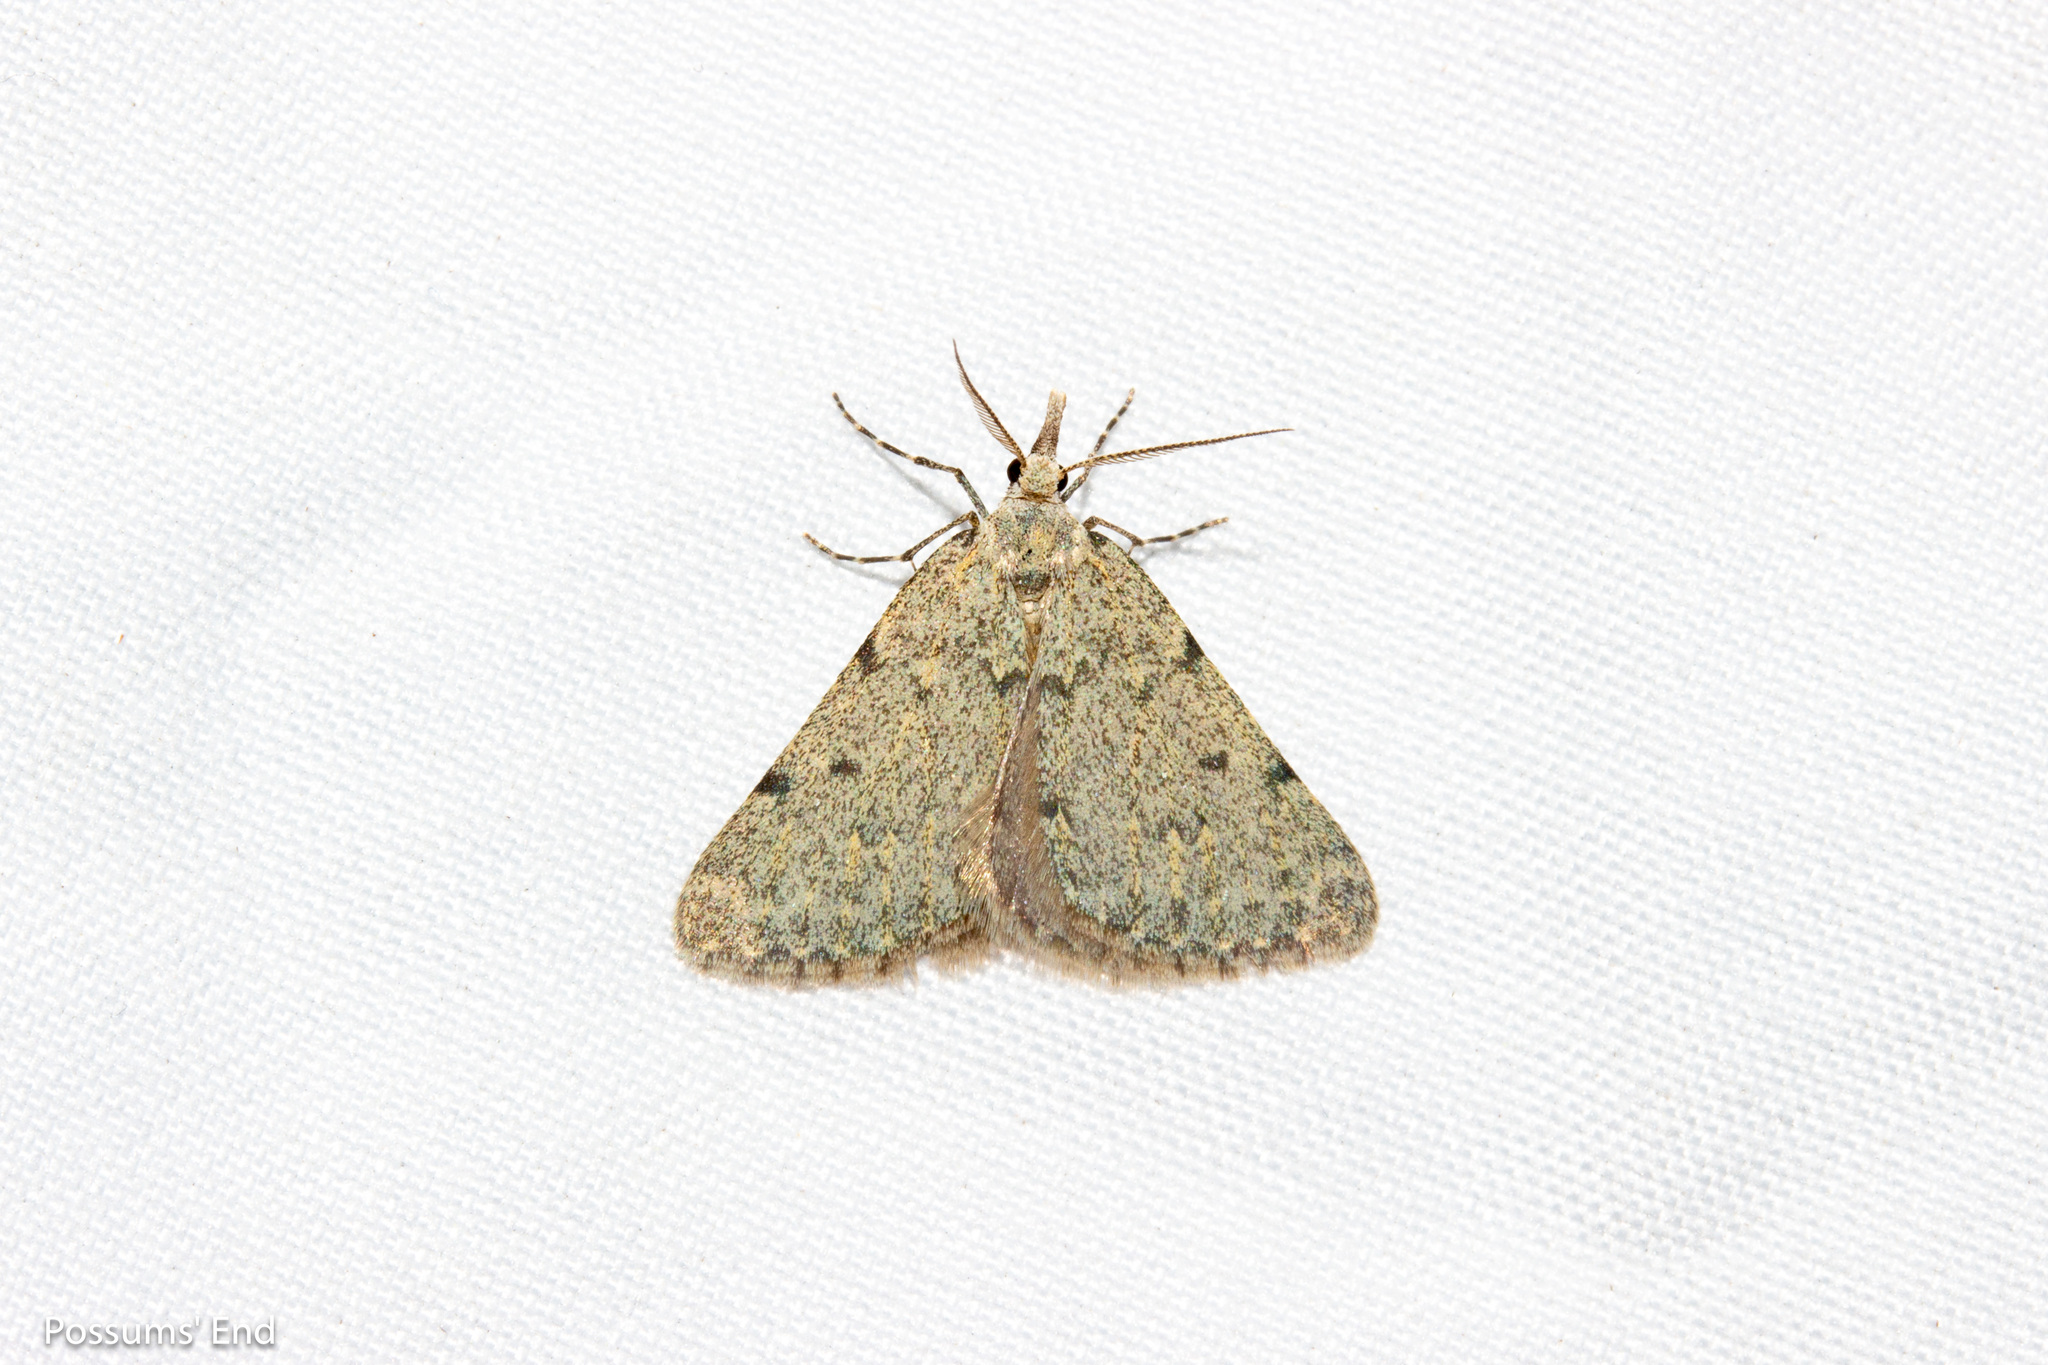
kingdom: Animalia
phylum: Arthropoda
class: Insecta
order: Lepidoptera
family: Geometridae
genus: Dichromodes
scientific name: Dichromodes sphaeriata
